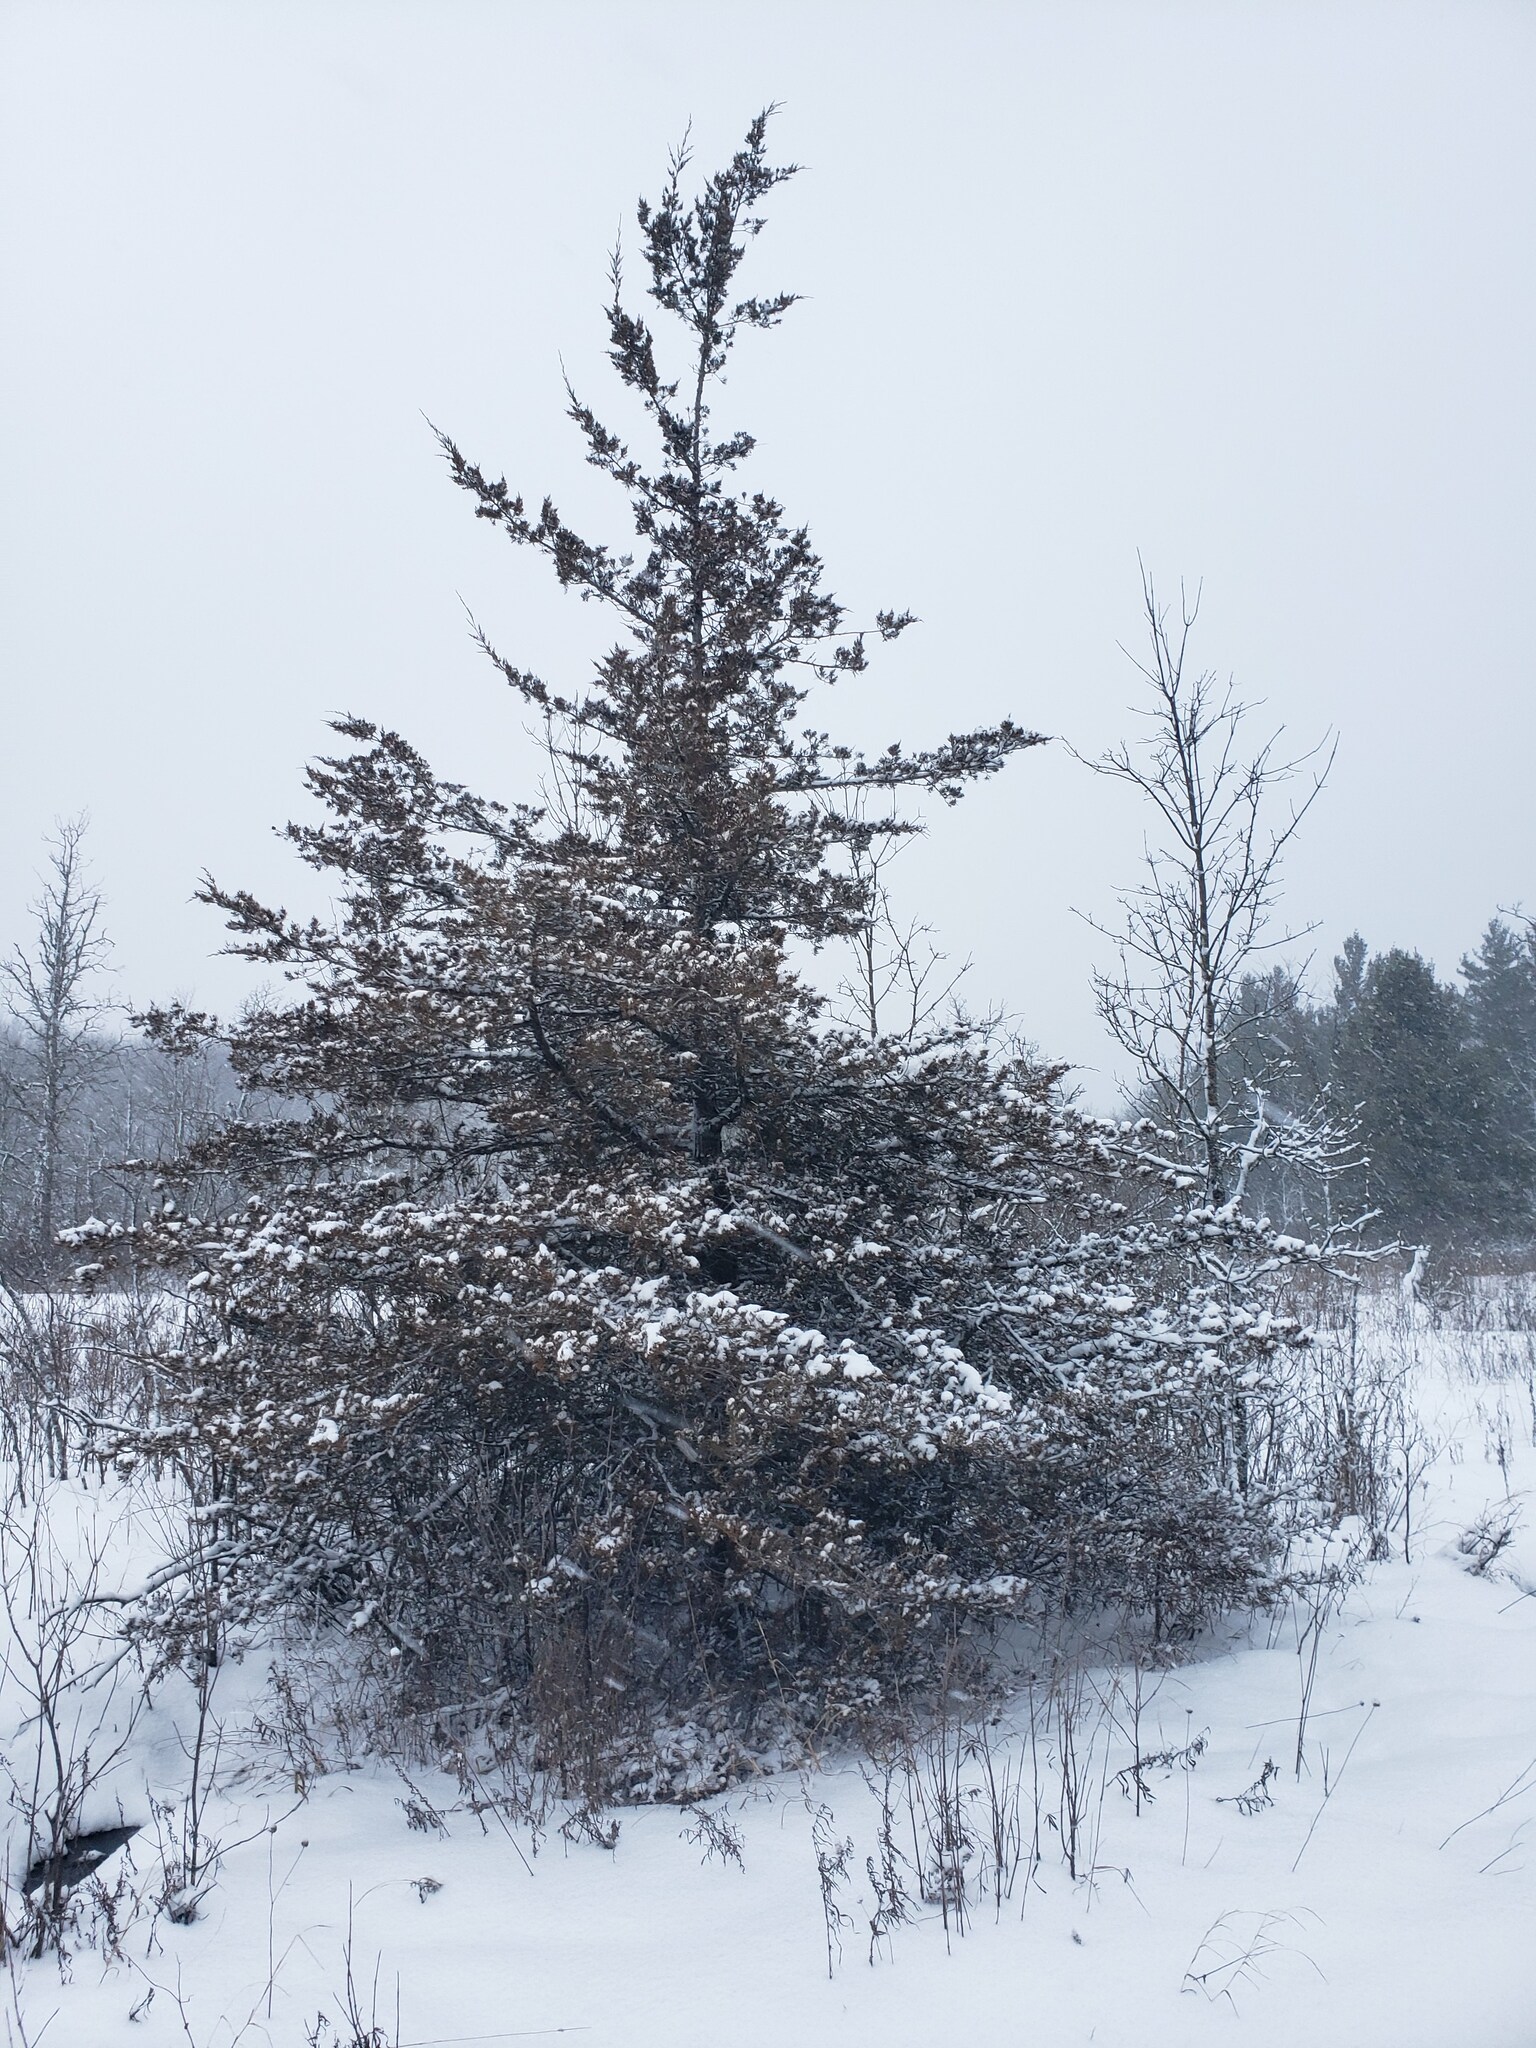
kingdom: Plantae
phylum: Tracheophyta
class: Pinopsida
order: Pinales
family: Cupressaceae
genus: Juniperus
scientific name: Juniperus virginiana
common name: Red juniper
